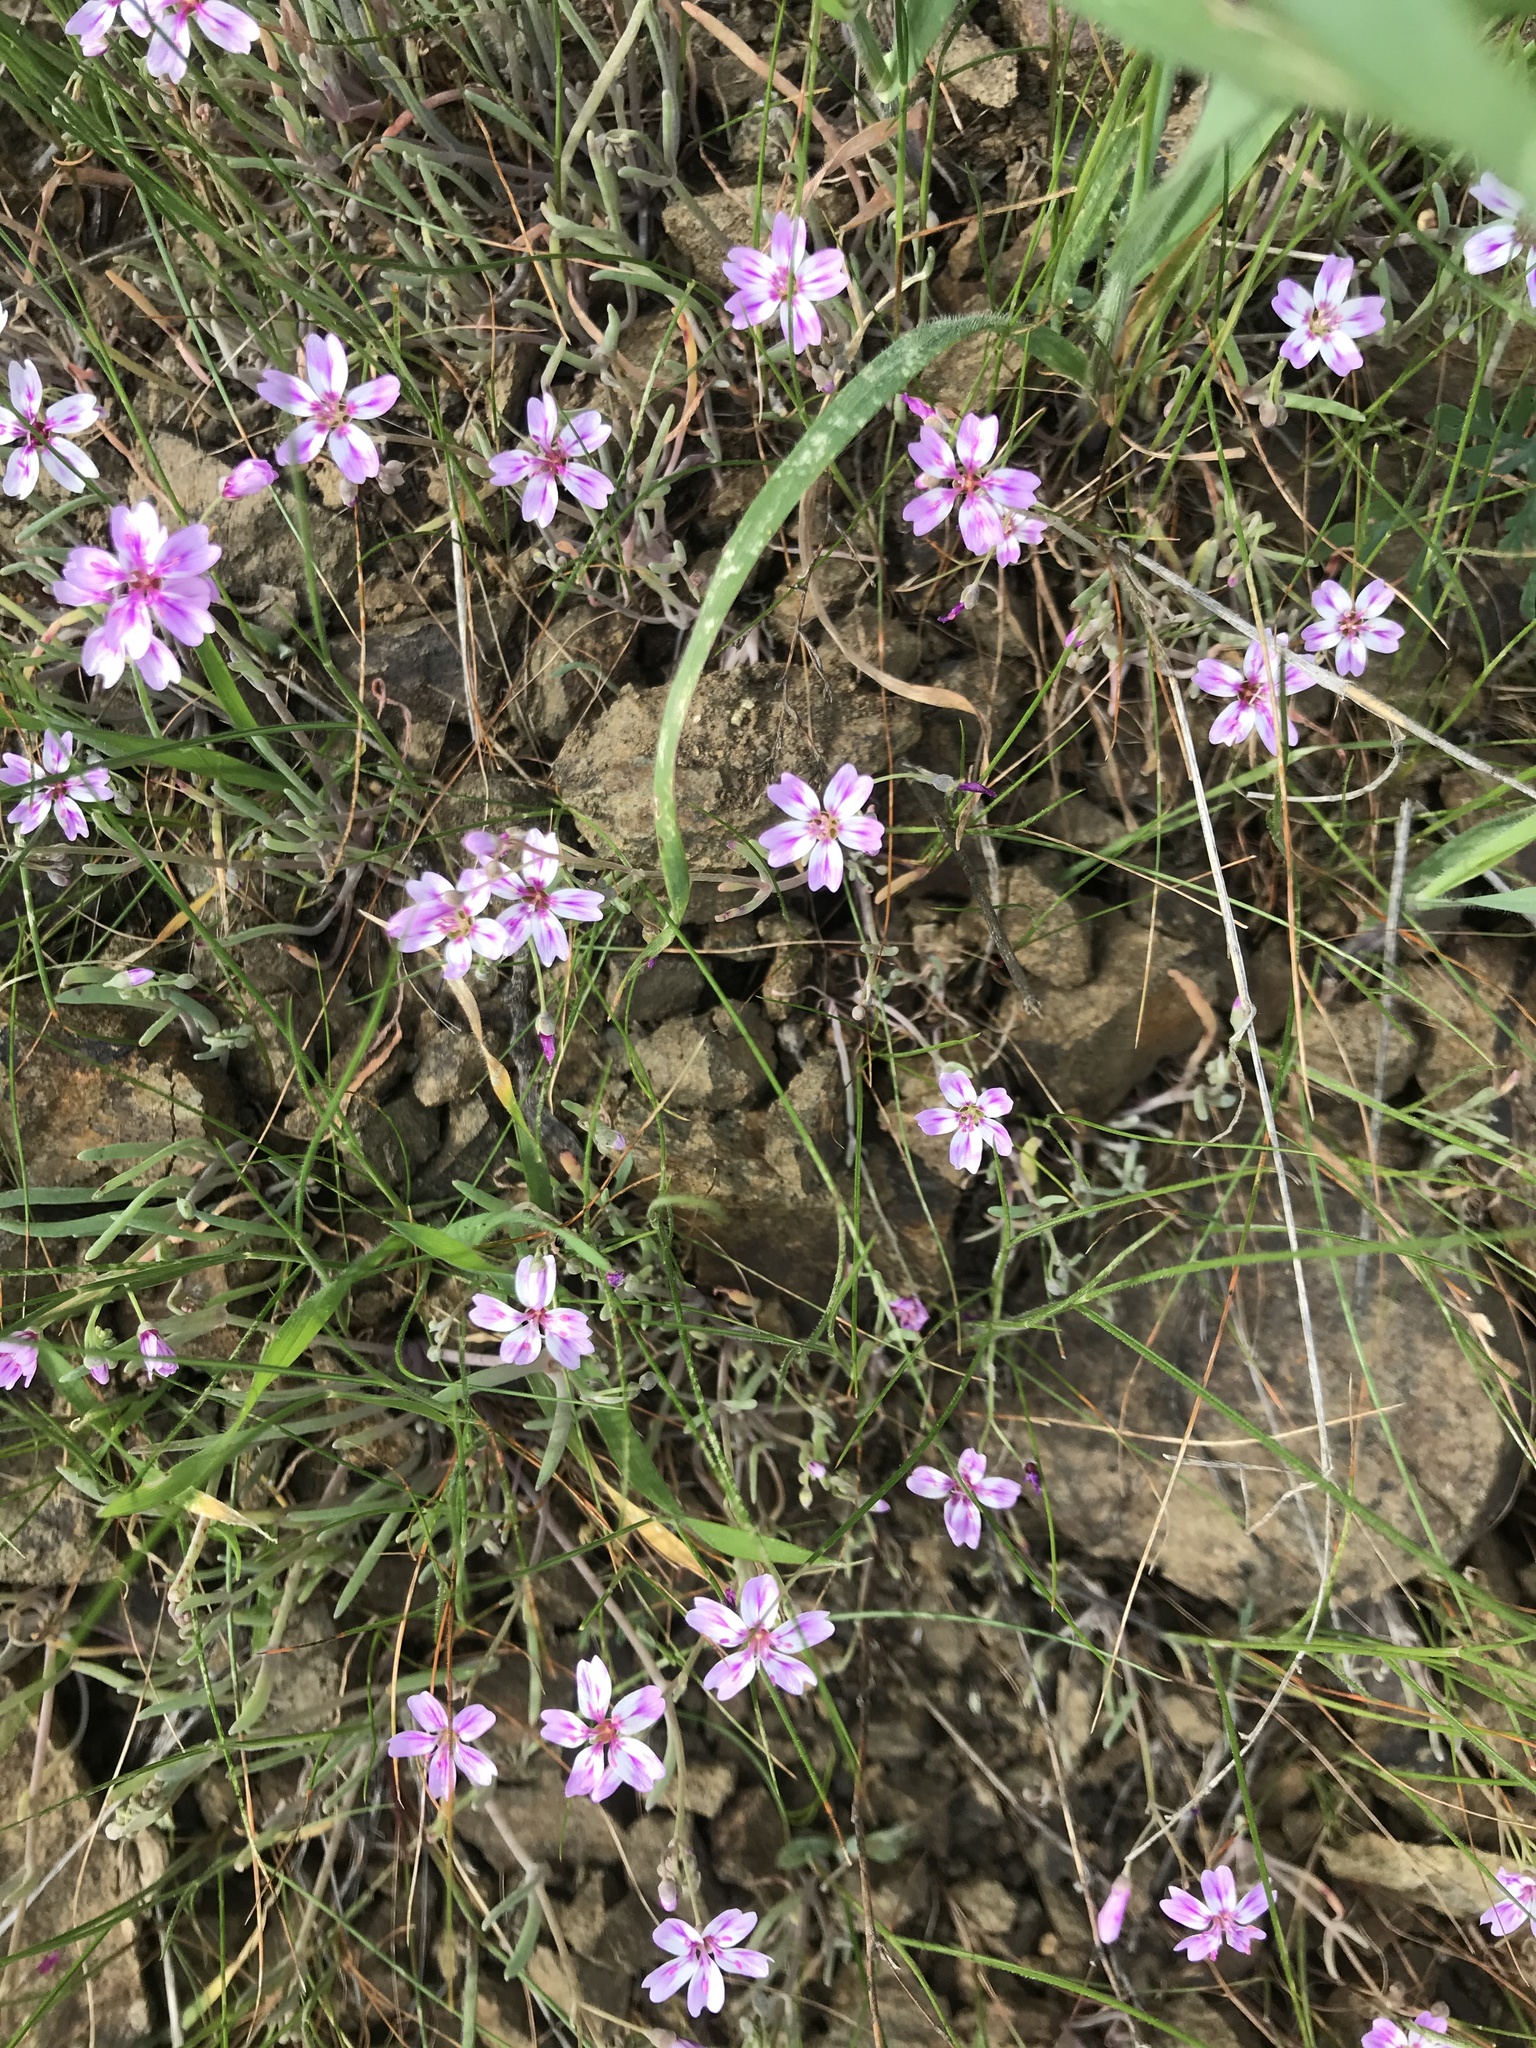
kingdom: Plantae
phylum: Tracheophyta
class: Magnoliopsida
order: Caryophyllales
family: Montiaceae
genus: Claytonia
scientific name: Claytonia gypsophiloides
